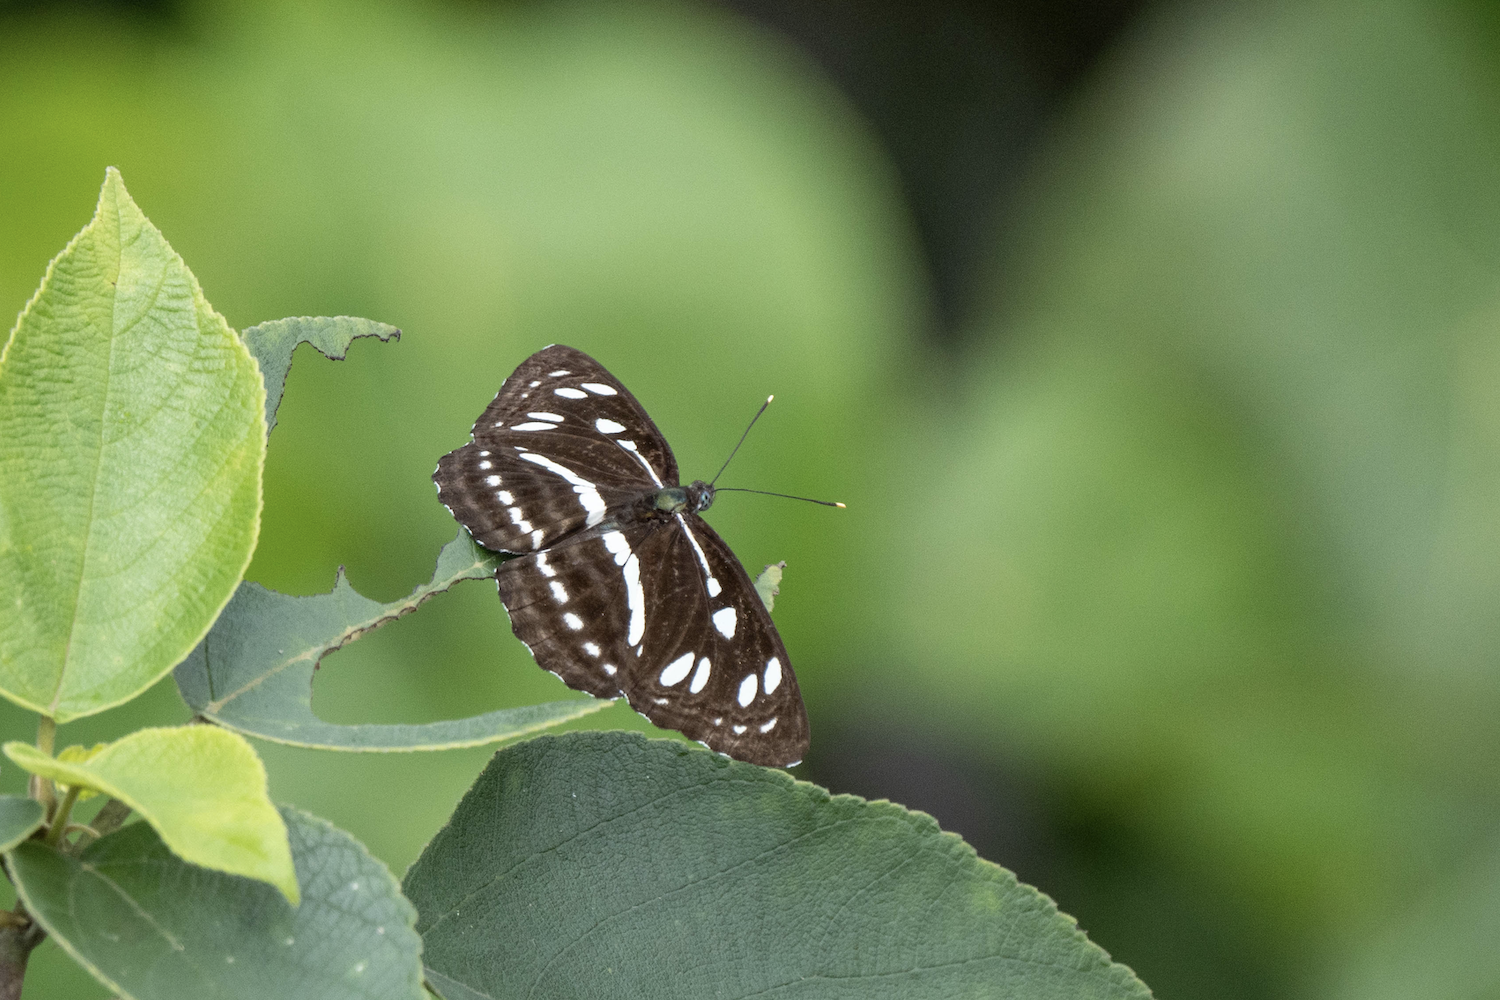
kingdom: Animalia
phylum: Arthropoda
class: Insecta
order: Lepidoptera
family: Nymphalidae
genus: Phaedyma
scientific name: Phaedyma columella
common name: Short banded sailer
